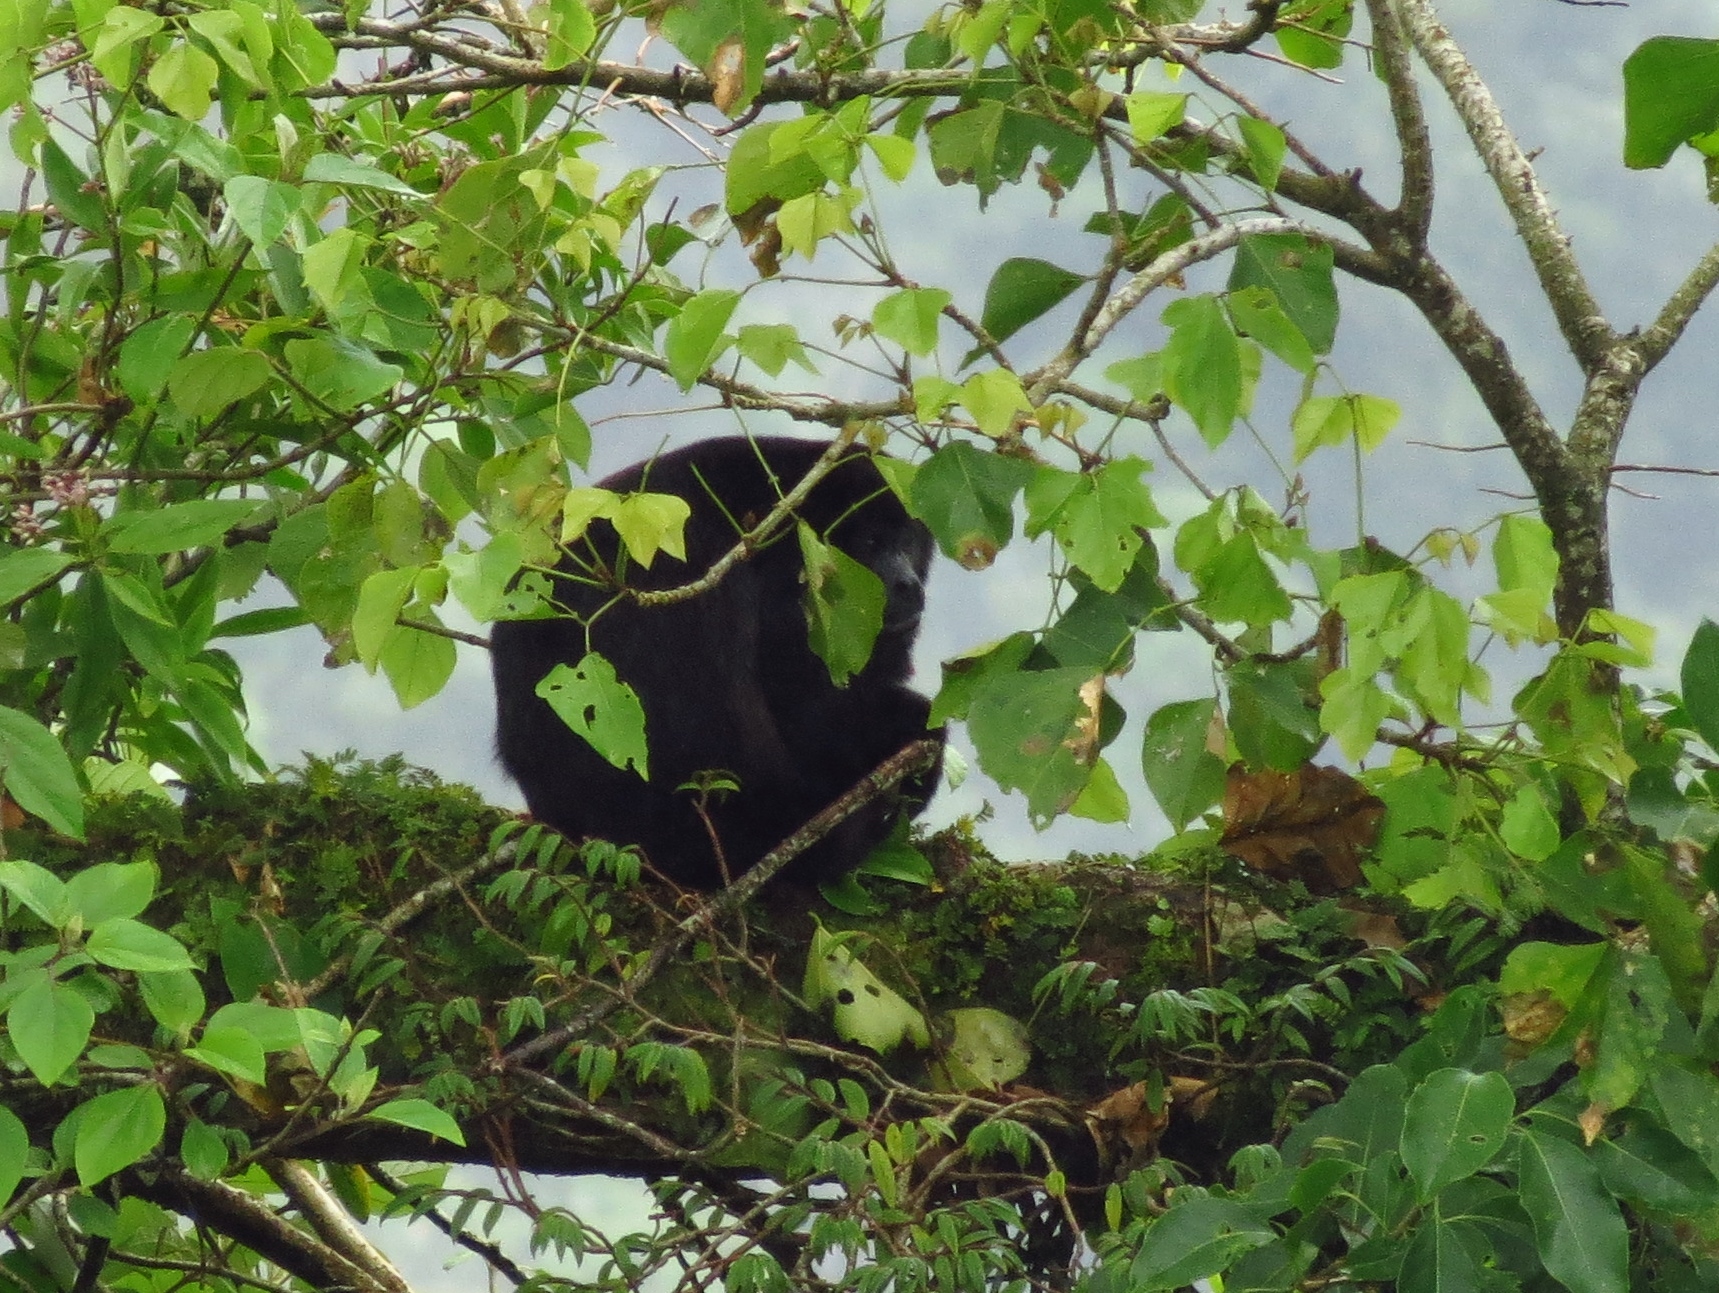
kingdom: Animalia
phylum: Chordata
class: Mammalia
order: Primates
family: Atelidae
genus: Alouatta
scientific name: Alouatta palliata
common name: Mantled howler
